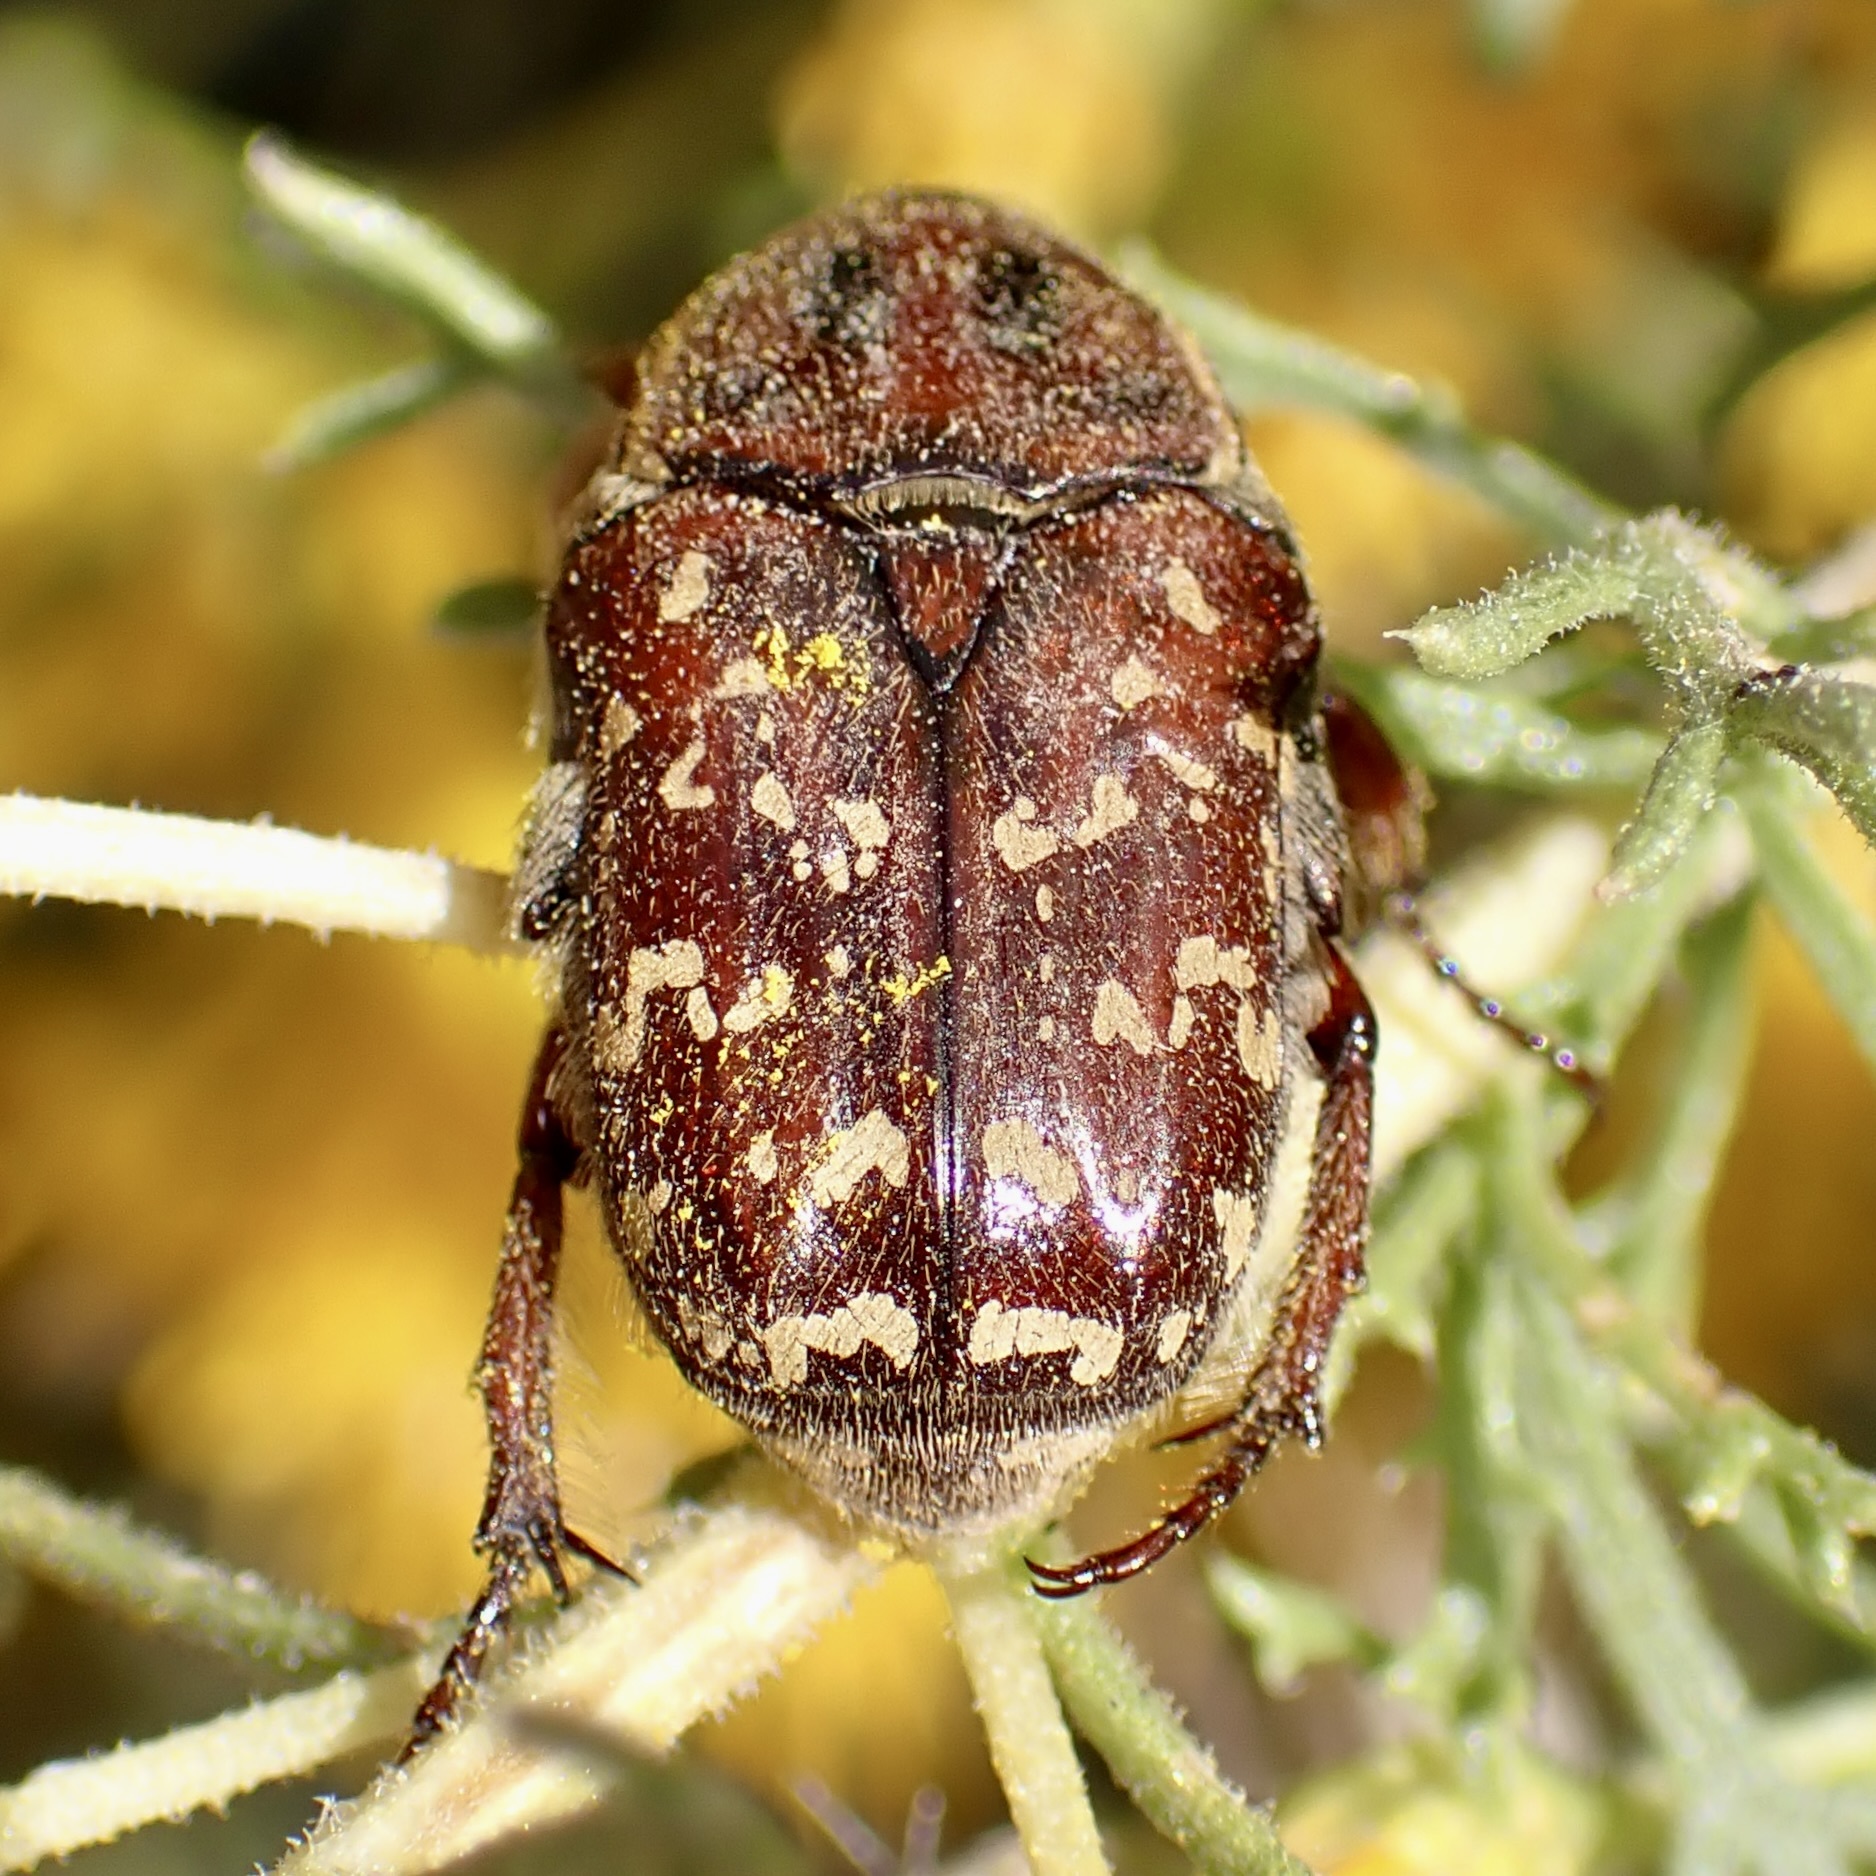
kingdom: Animalia
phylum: Arthropoda
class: Insecta
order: Coleoptera
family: Scarabaeidae
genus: Euphoria
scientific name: Euphoria leucographa
